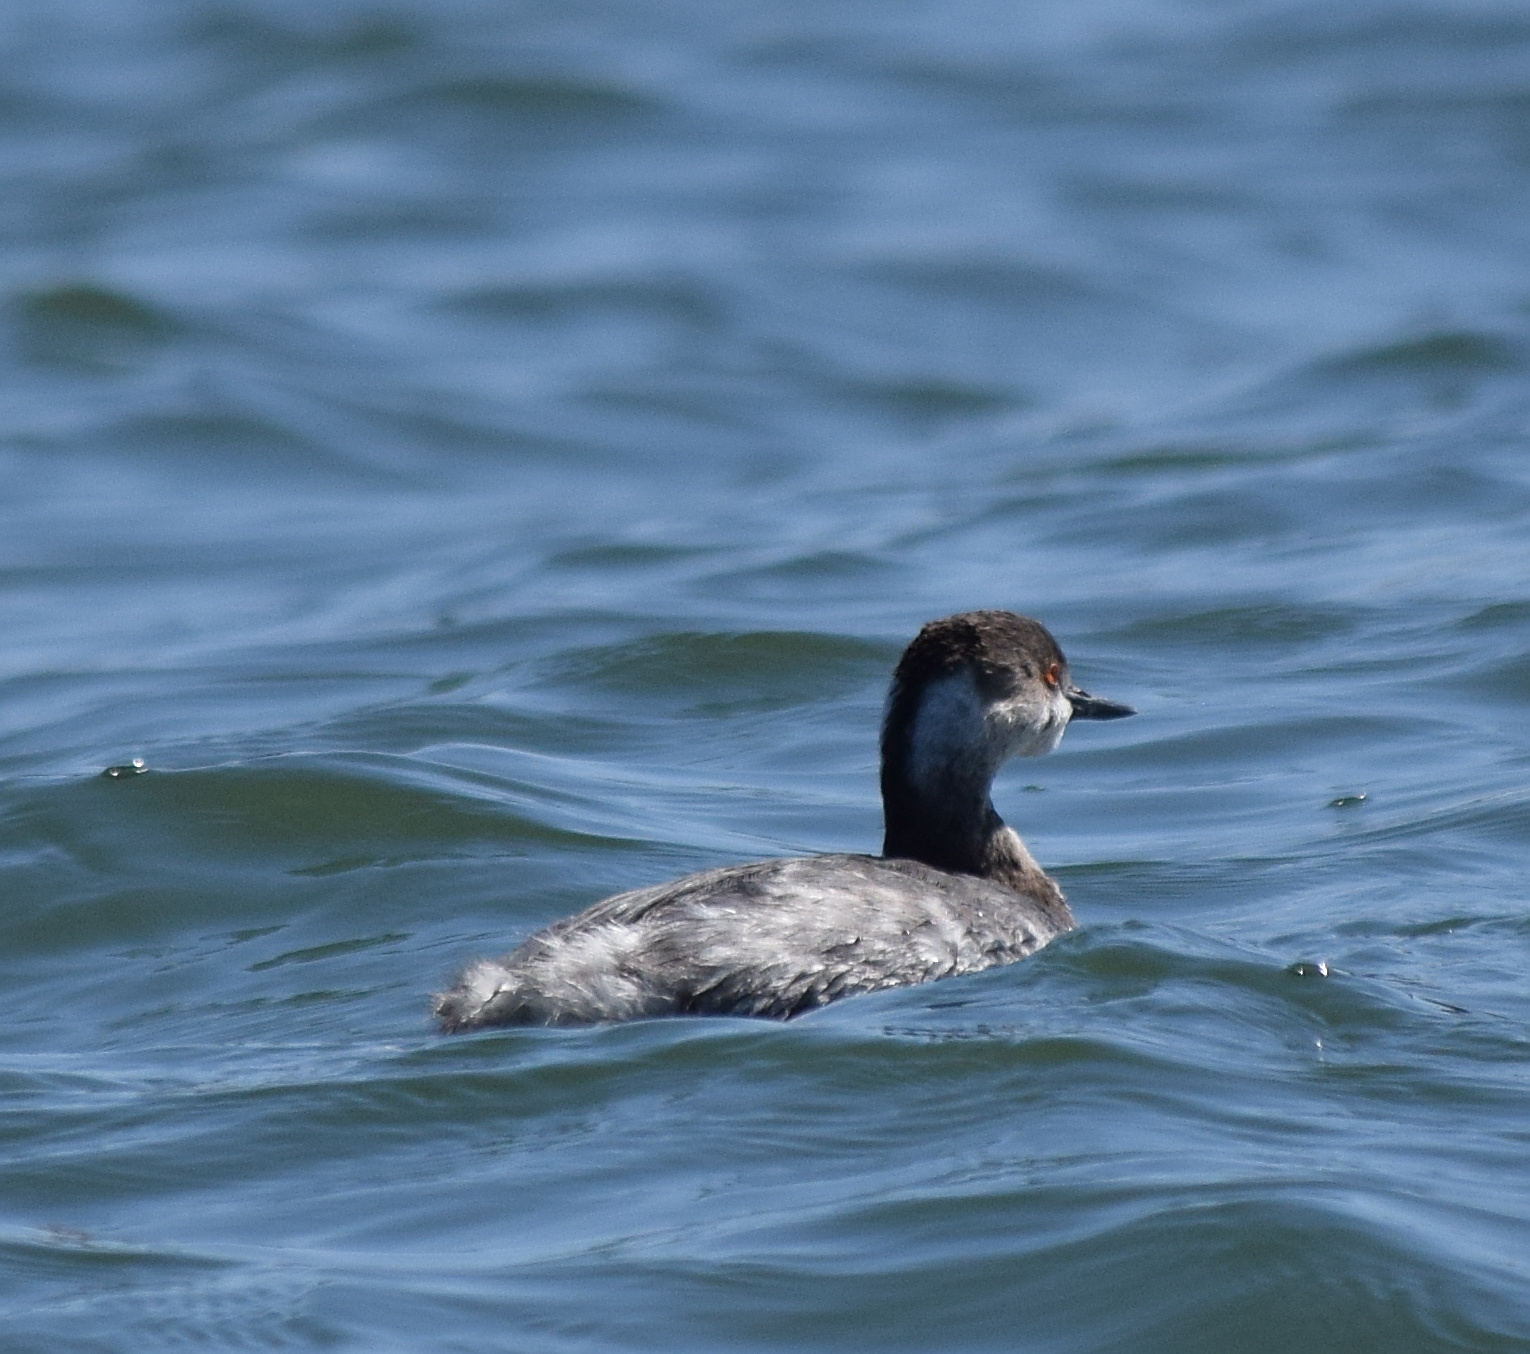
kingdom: Animalia
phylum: Chordata
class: Aves
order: Podicipediformes
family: Podicipedidae
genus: Podiceps
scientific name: Podiceps nigricollis
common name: Black-necked grebe
